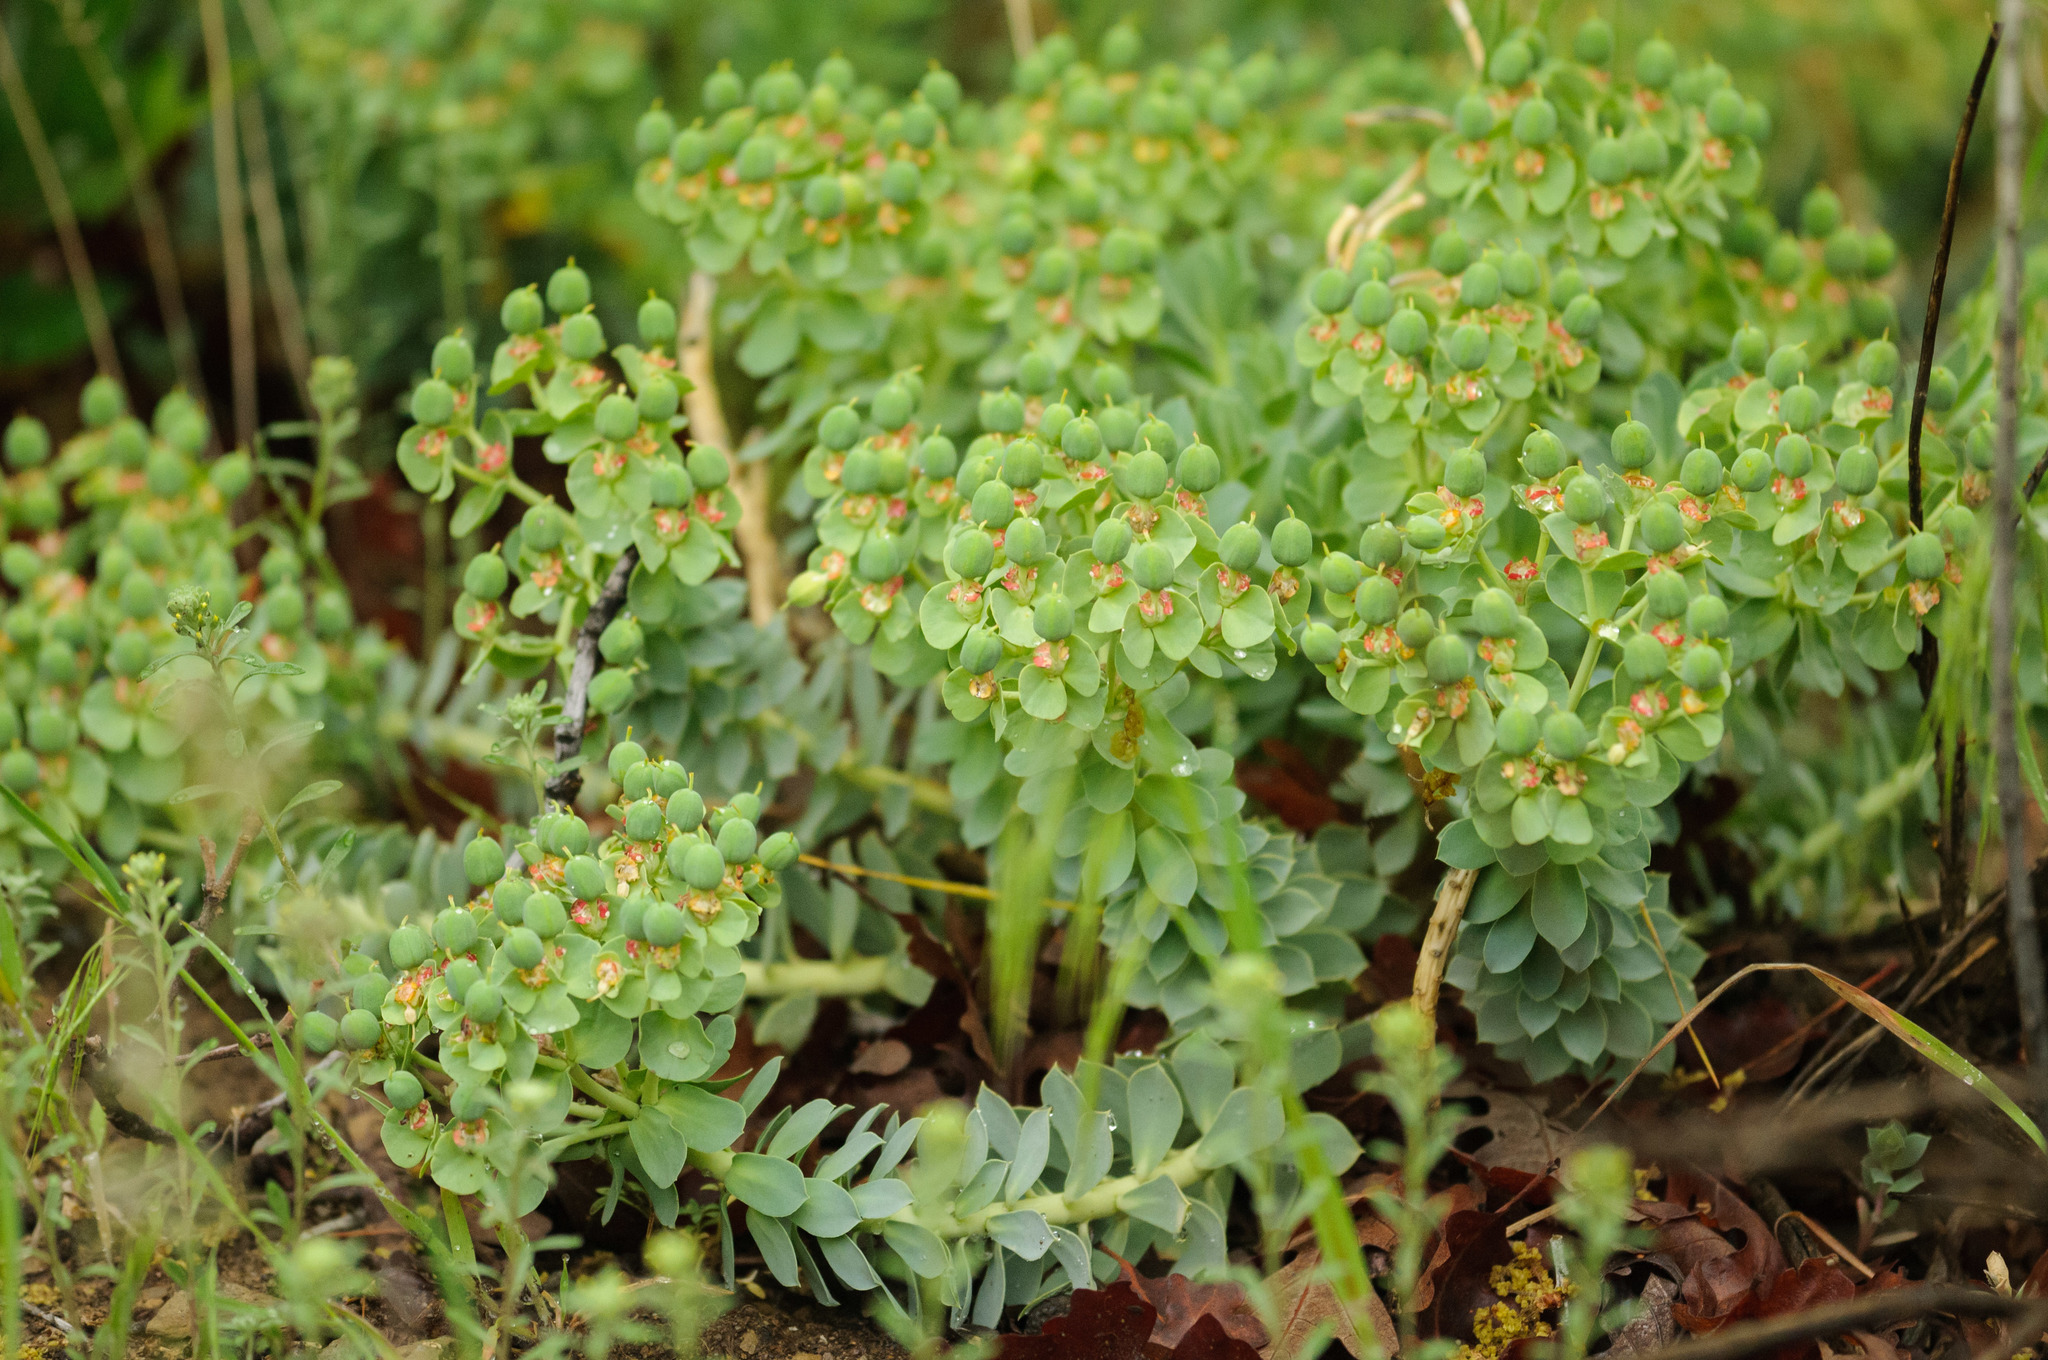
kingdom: Plantae
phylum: Tracheophyta
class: Magnoliopsida
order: Malpighiales
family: Euphorbiaceae
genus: Euphorbia
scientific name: Euphorbia myrsinites
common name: Myrtle spurge
